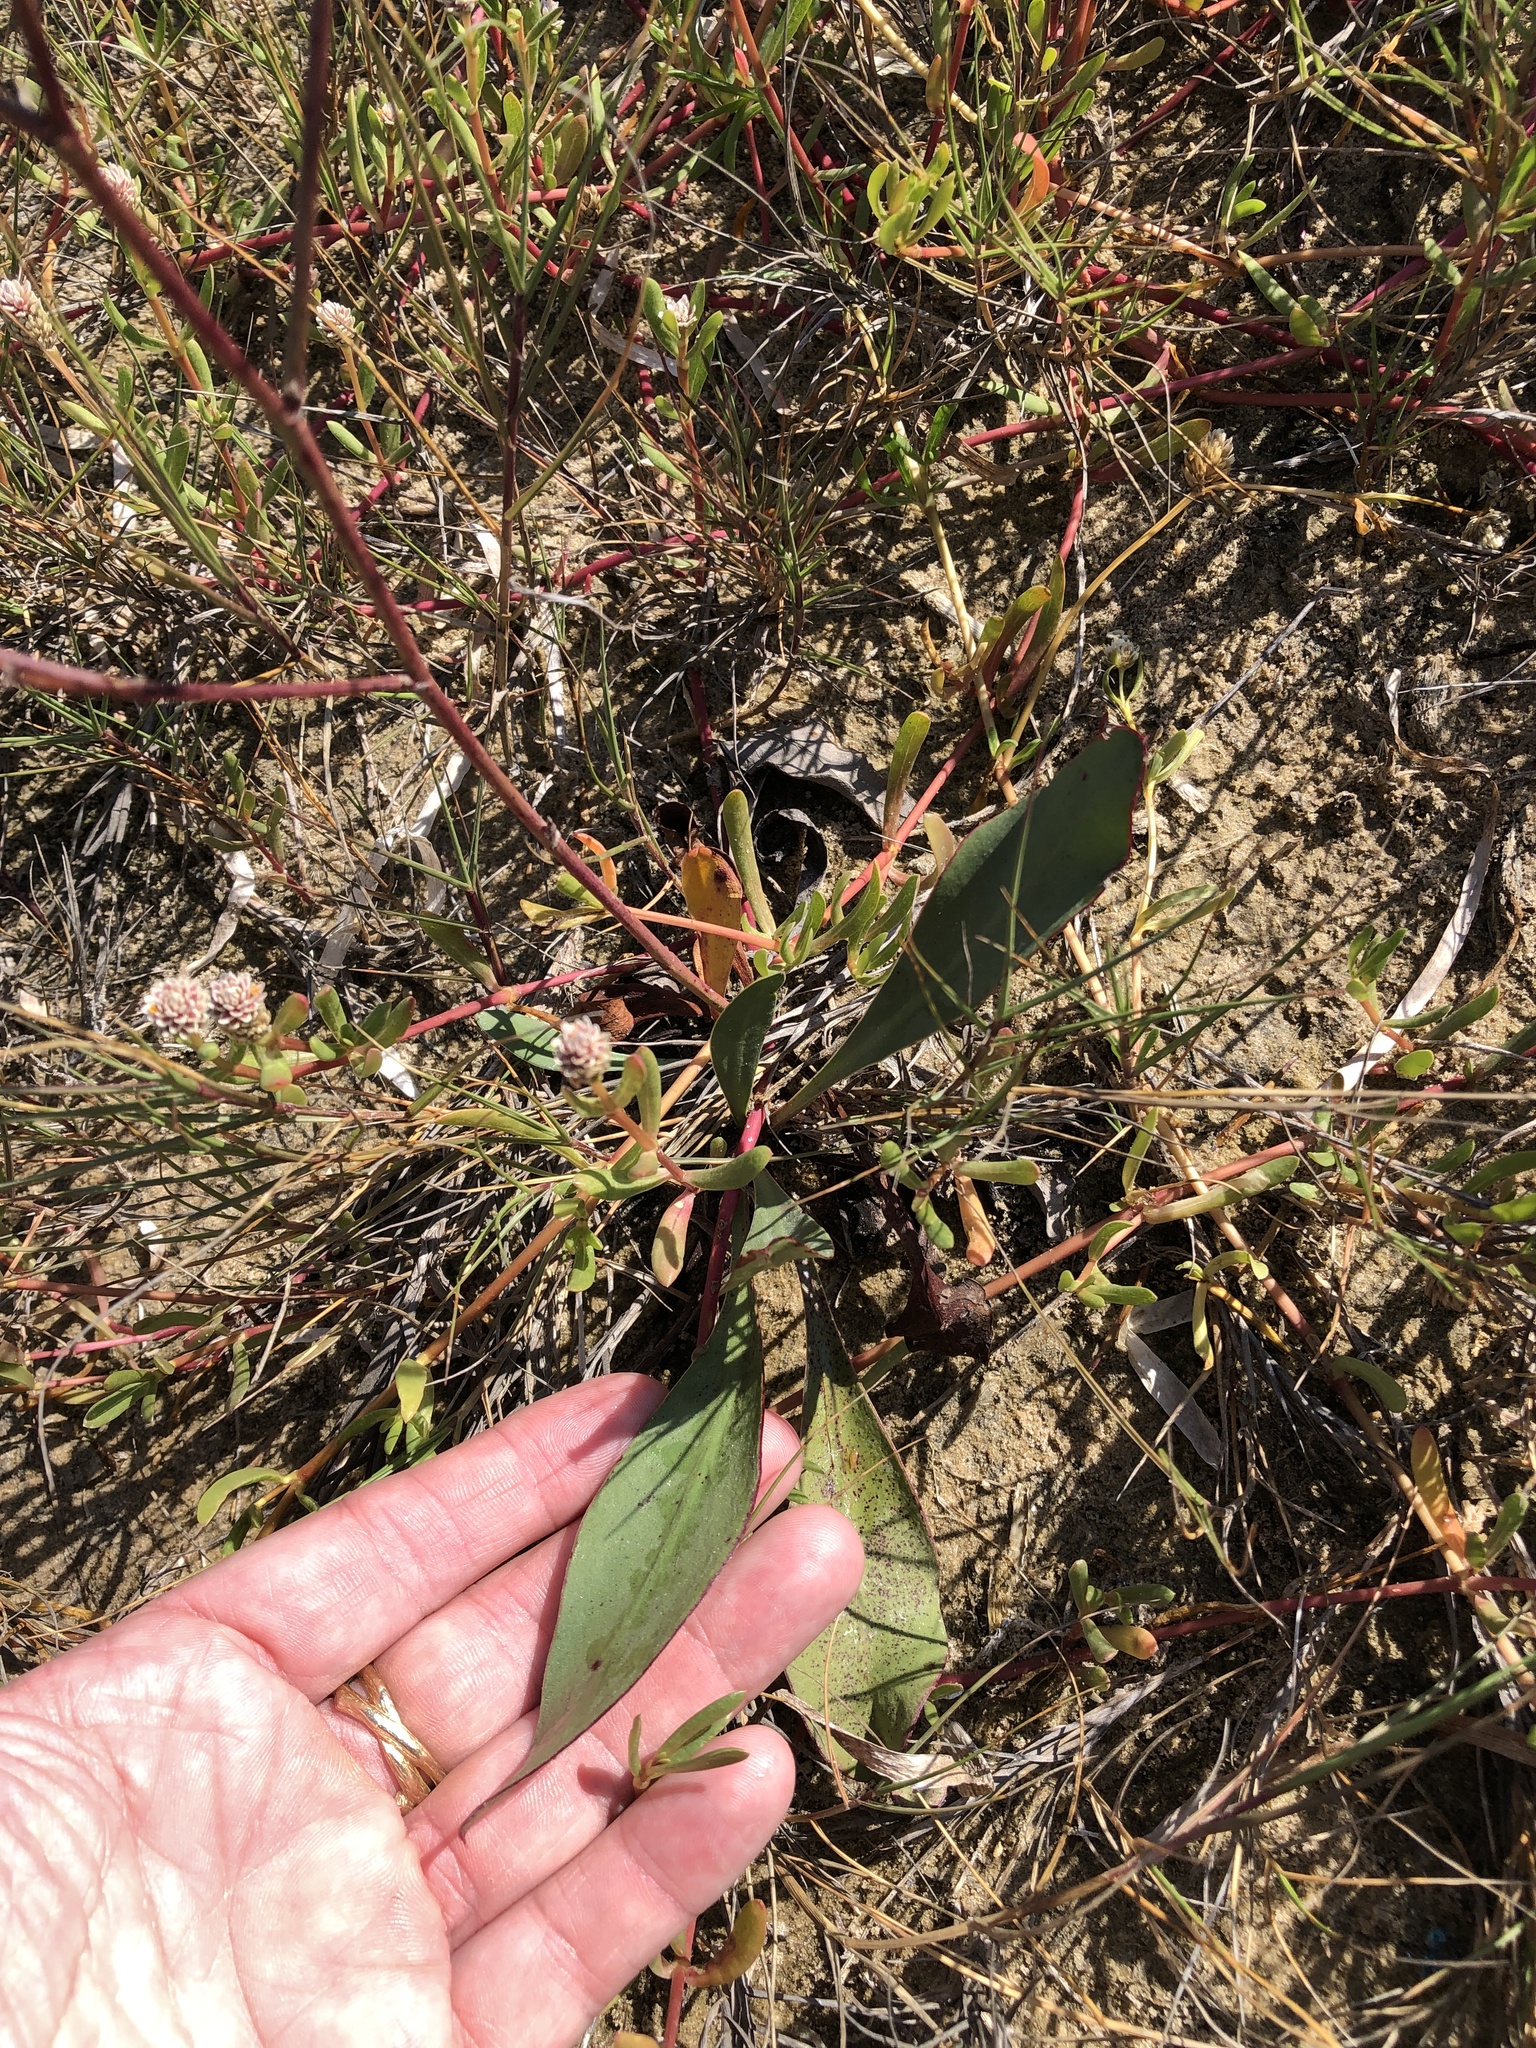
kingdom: Plantae
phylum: Tracheophyta
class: Magnoliopsida
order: Caryophyllales
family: Plumbaginaceae
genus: Limonium
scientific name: Limonium carolinianum
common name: Carolina sea lavender
